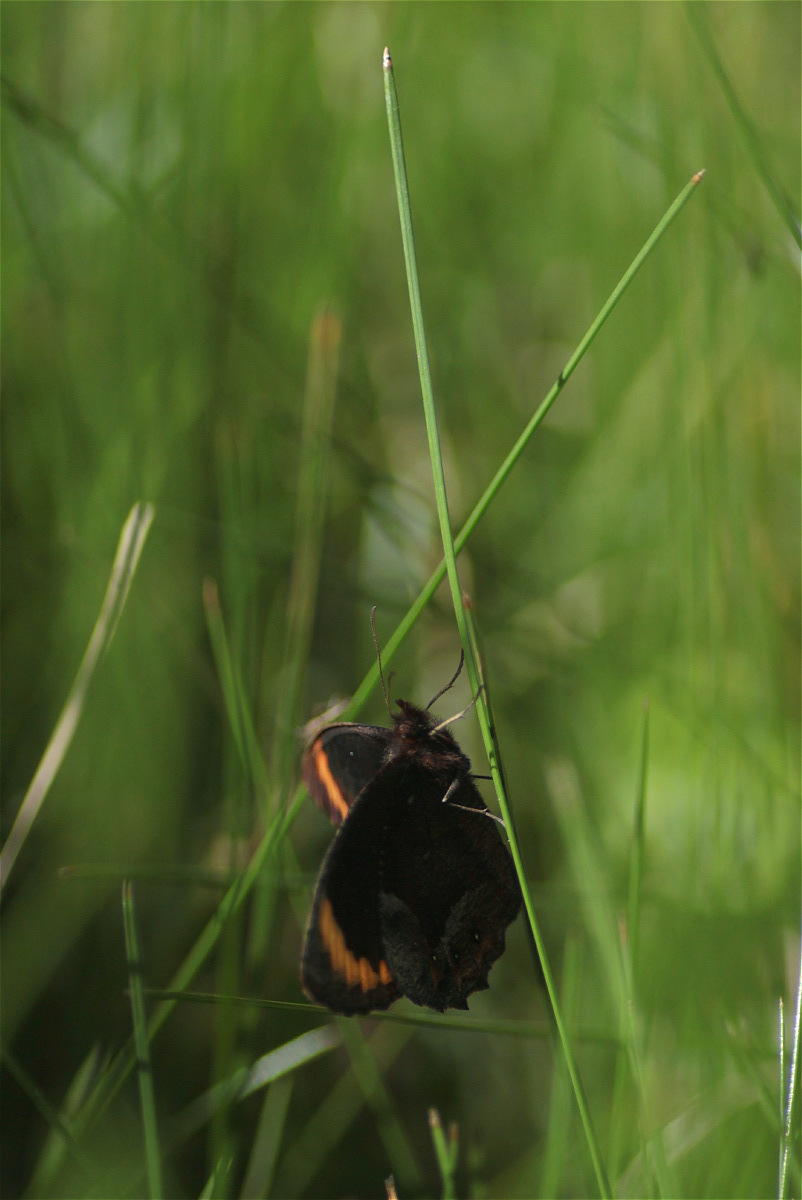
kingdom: Animalia
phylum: Arthropoda
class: Insecta
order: Lepidoptera
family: Nymphalidae
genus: Parapedaliodes
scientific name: Parapedaliodes parepa
